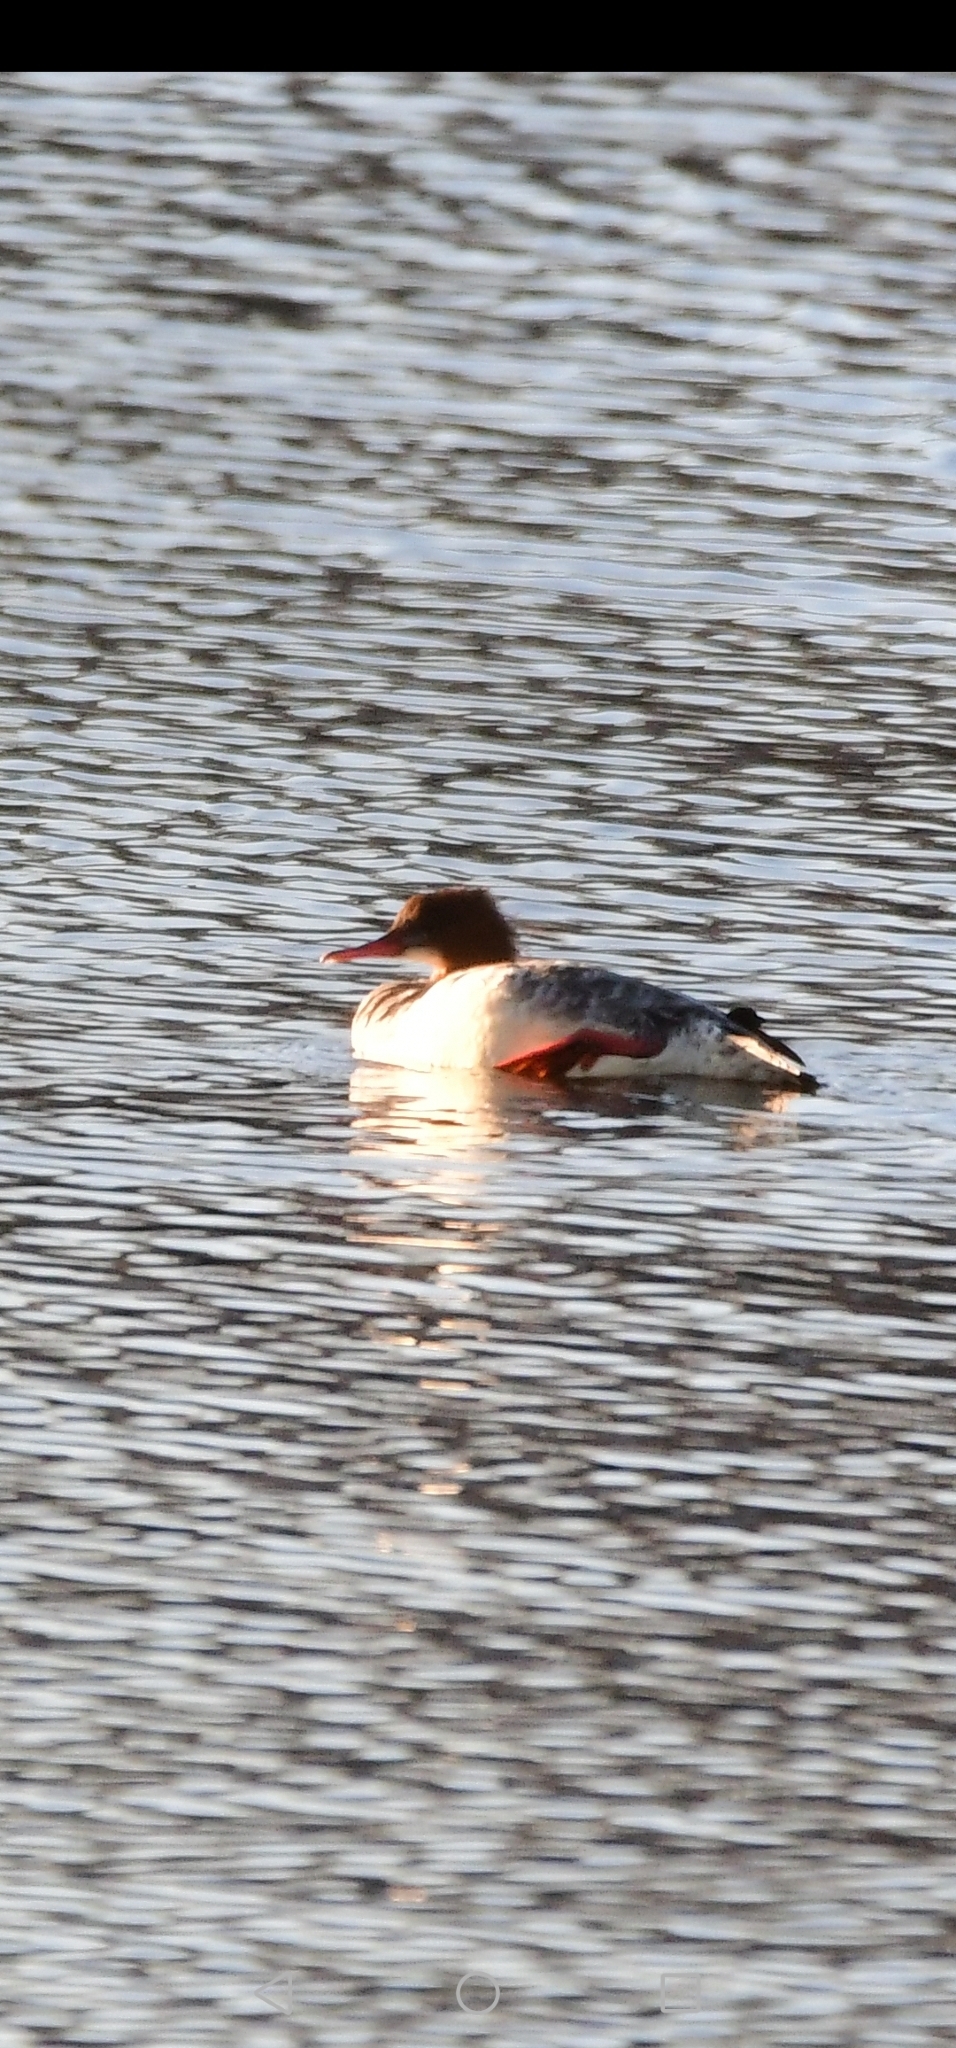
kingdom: Animalia
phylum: Chordata
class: Aves
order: Anseriformes
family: Anatidae
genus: Mergus
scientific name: Mergus merganser
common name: Common merganser
